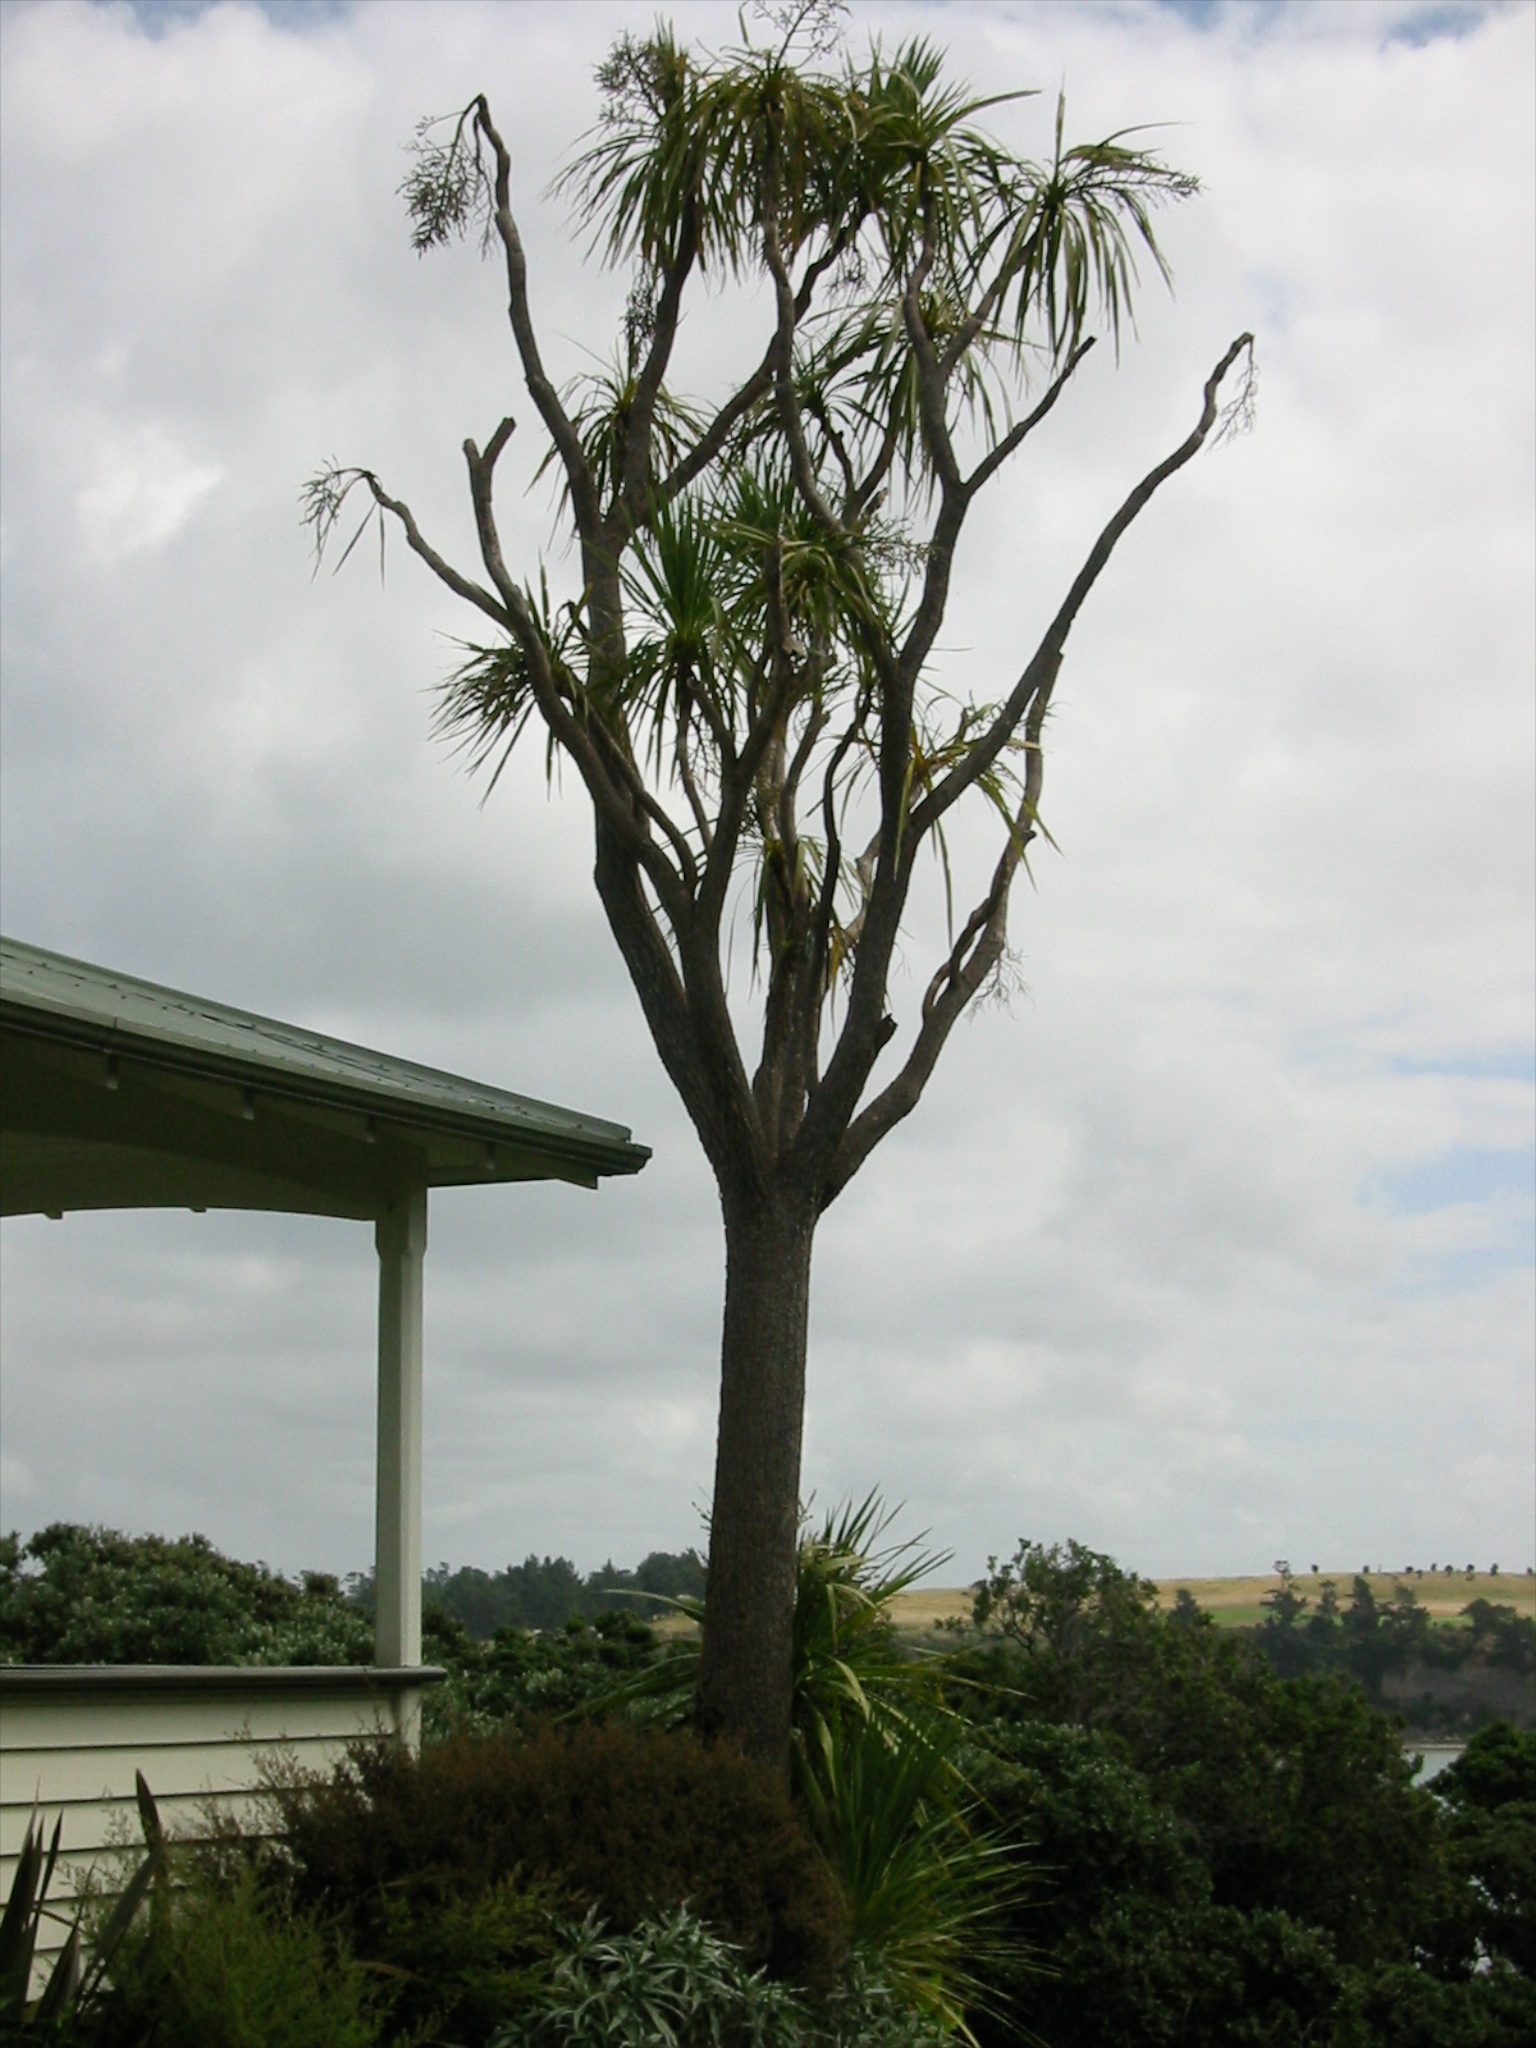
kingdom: Plantae
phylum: Tracheophyta
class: Liliopsida
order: Asparagales
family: Asparagaceae
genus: Cordyline
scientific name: Cordyline australis
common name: Cabbage-palm
